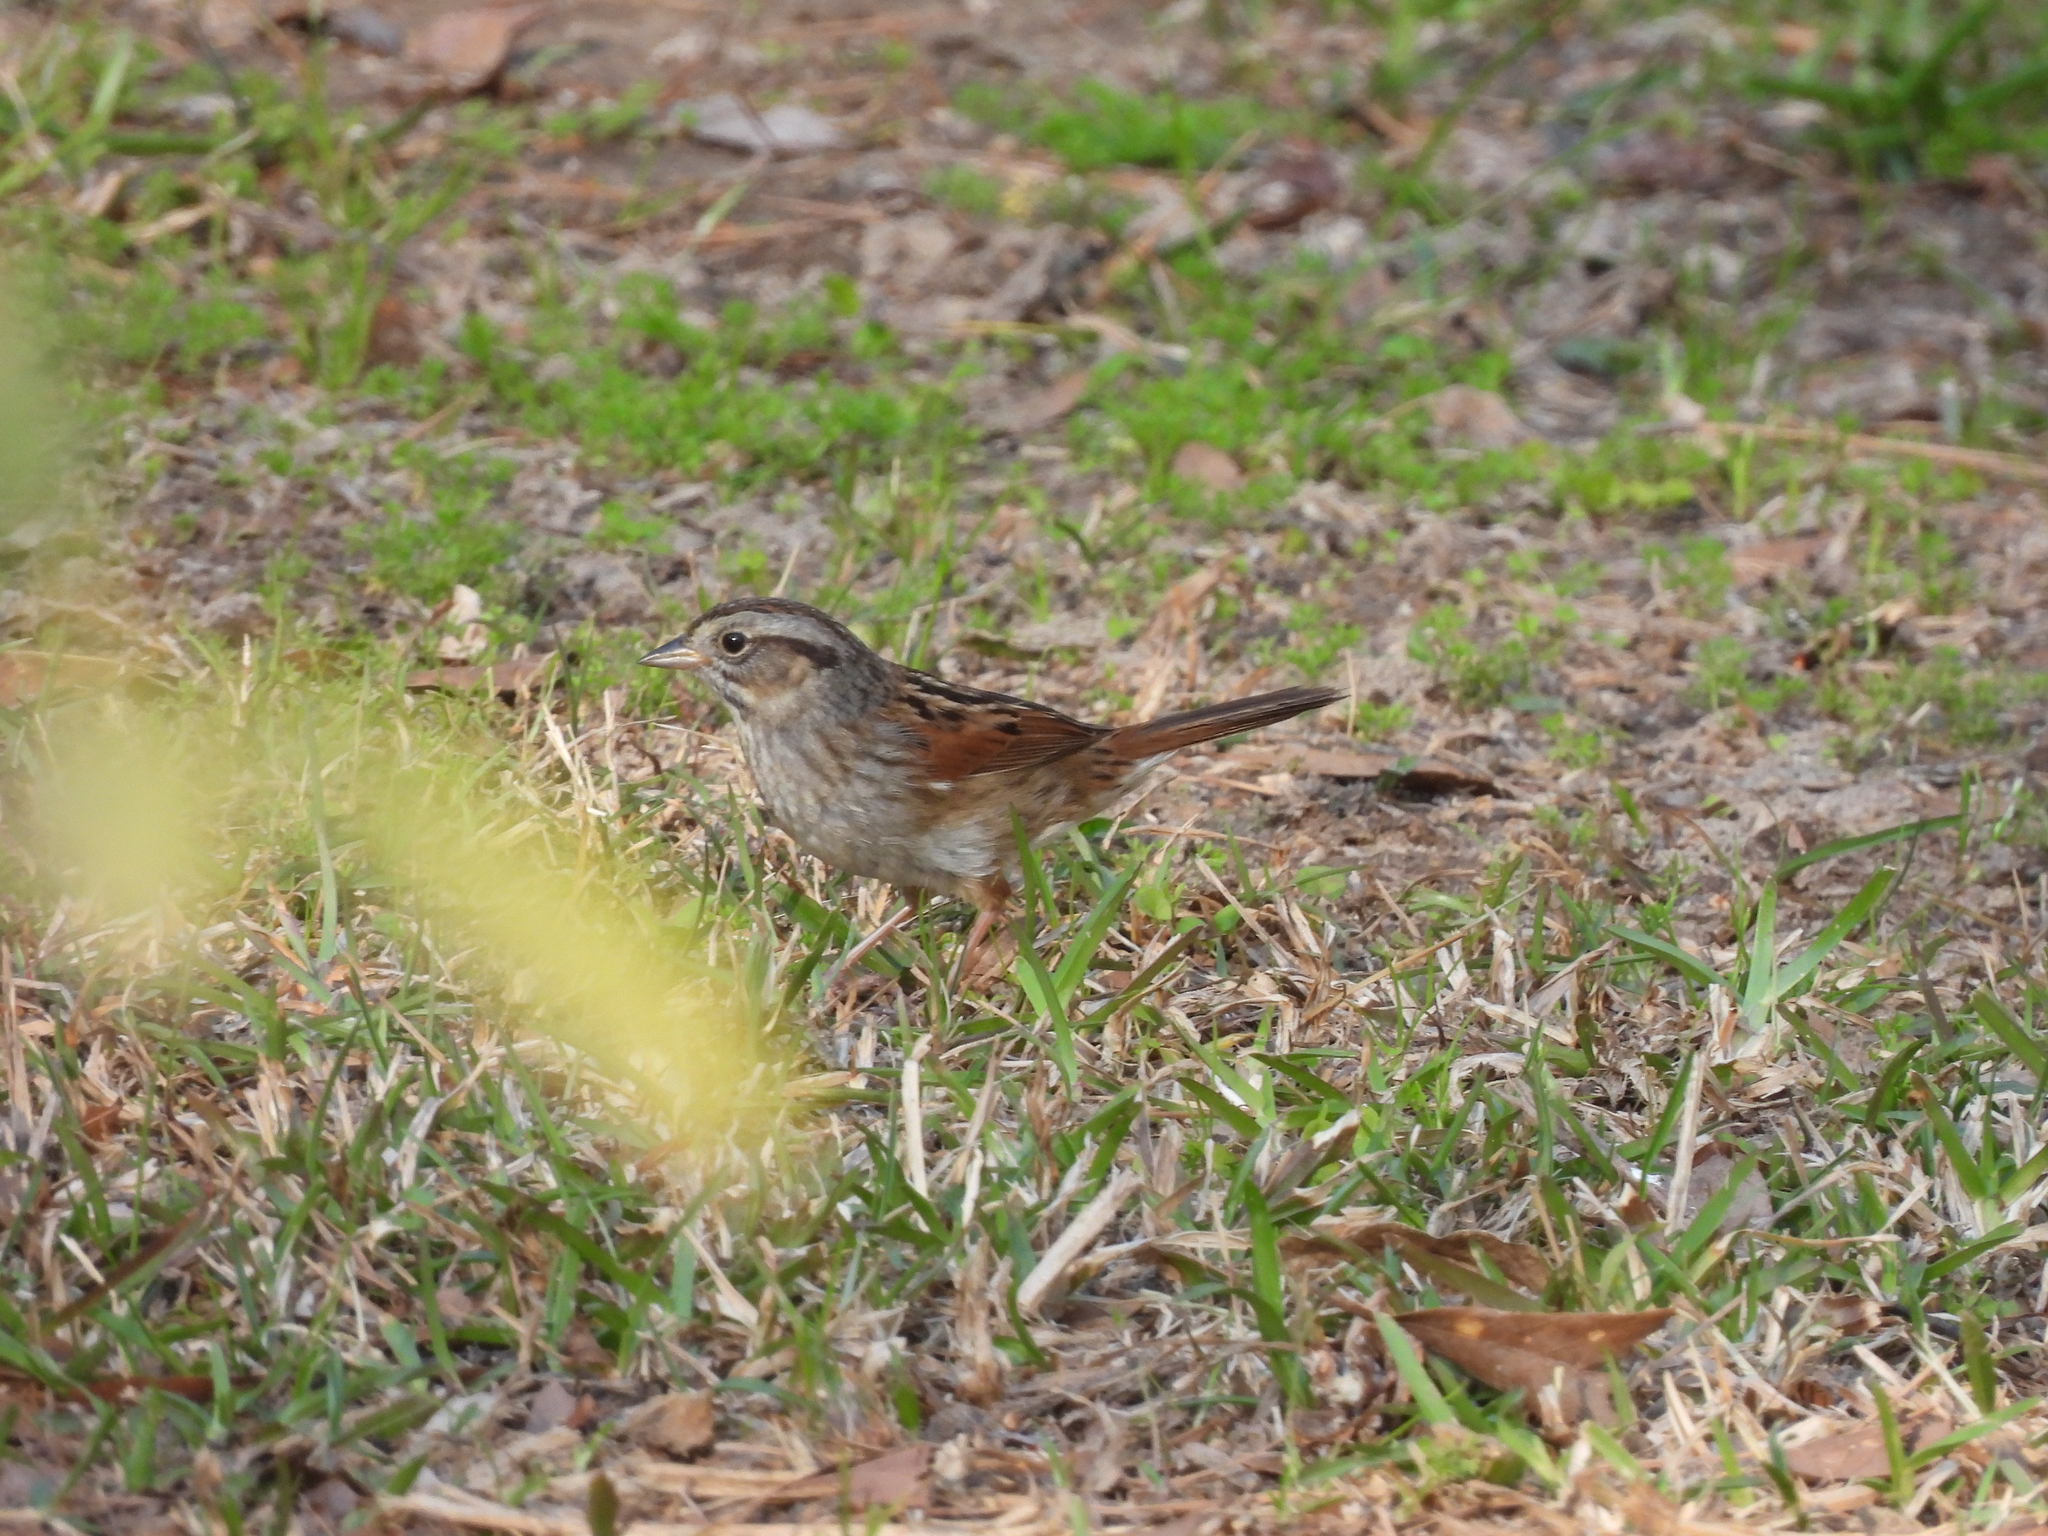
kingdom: Animalia
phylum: Chordata
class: Aves
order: Passeriformes
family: Passerellidae
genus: Melospiza
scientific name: Melospiza georgiana
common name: Swamp sparrow
